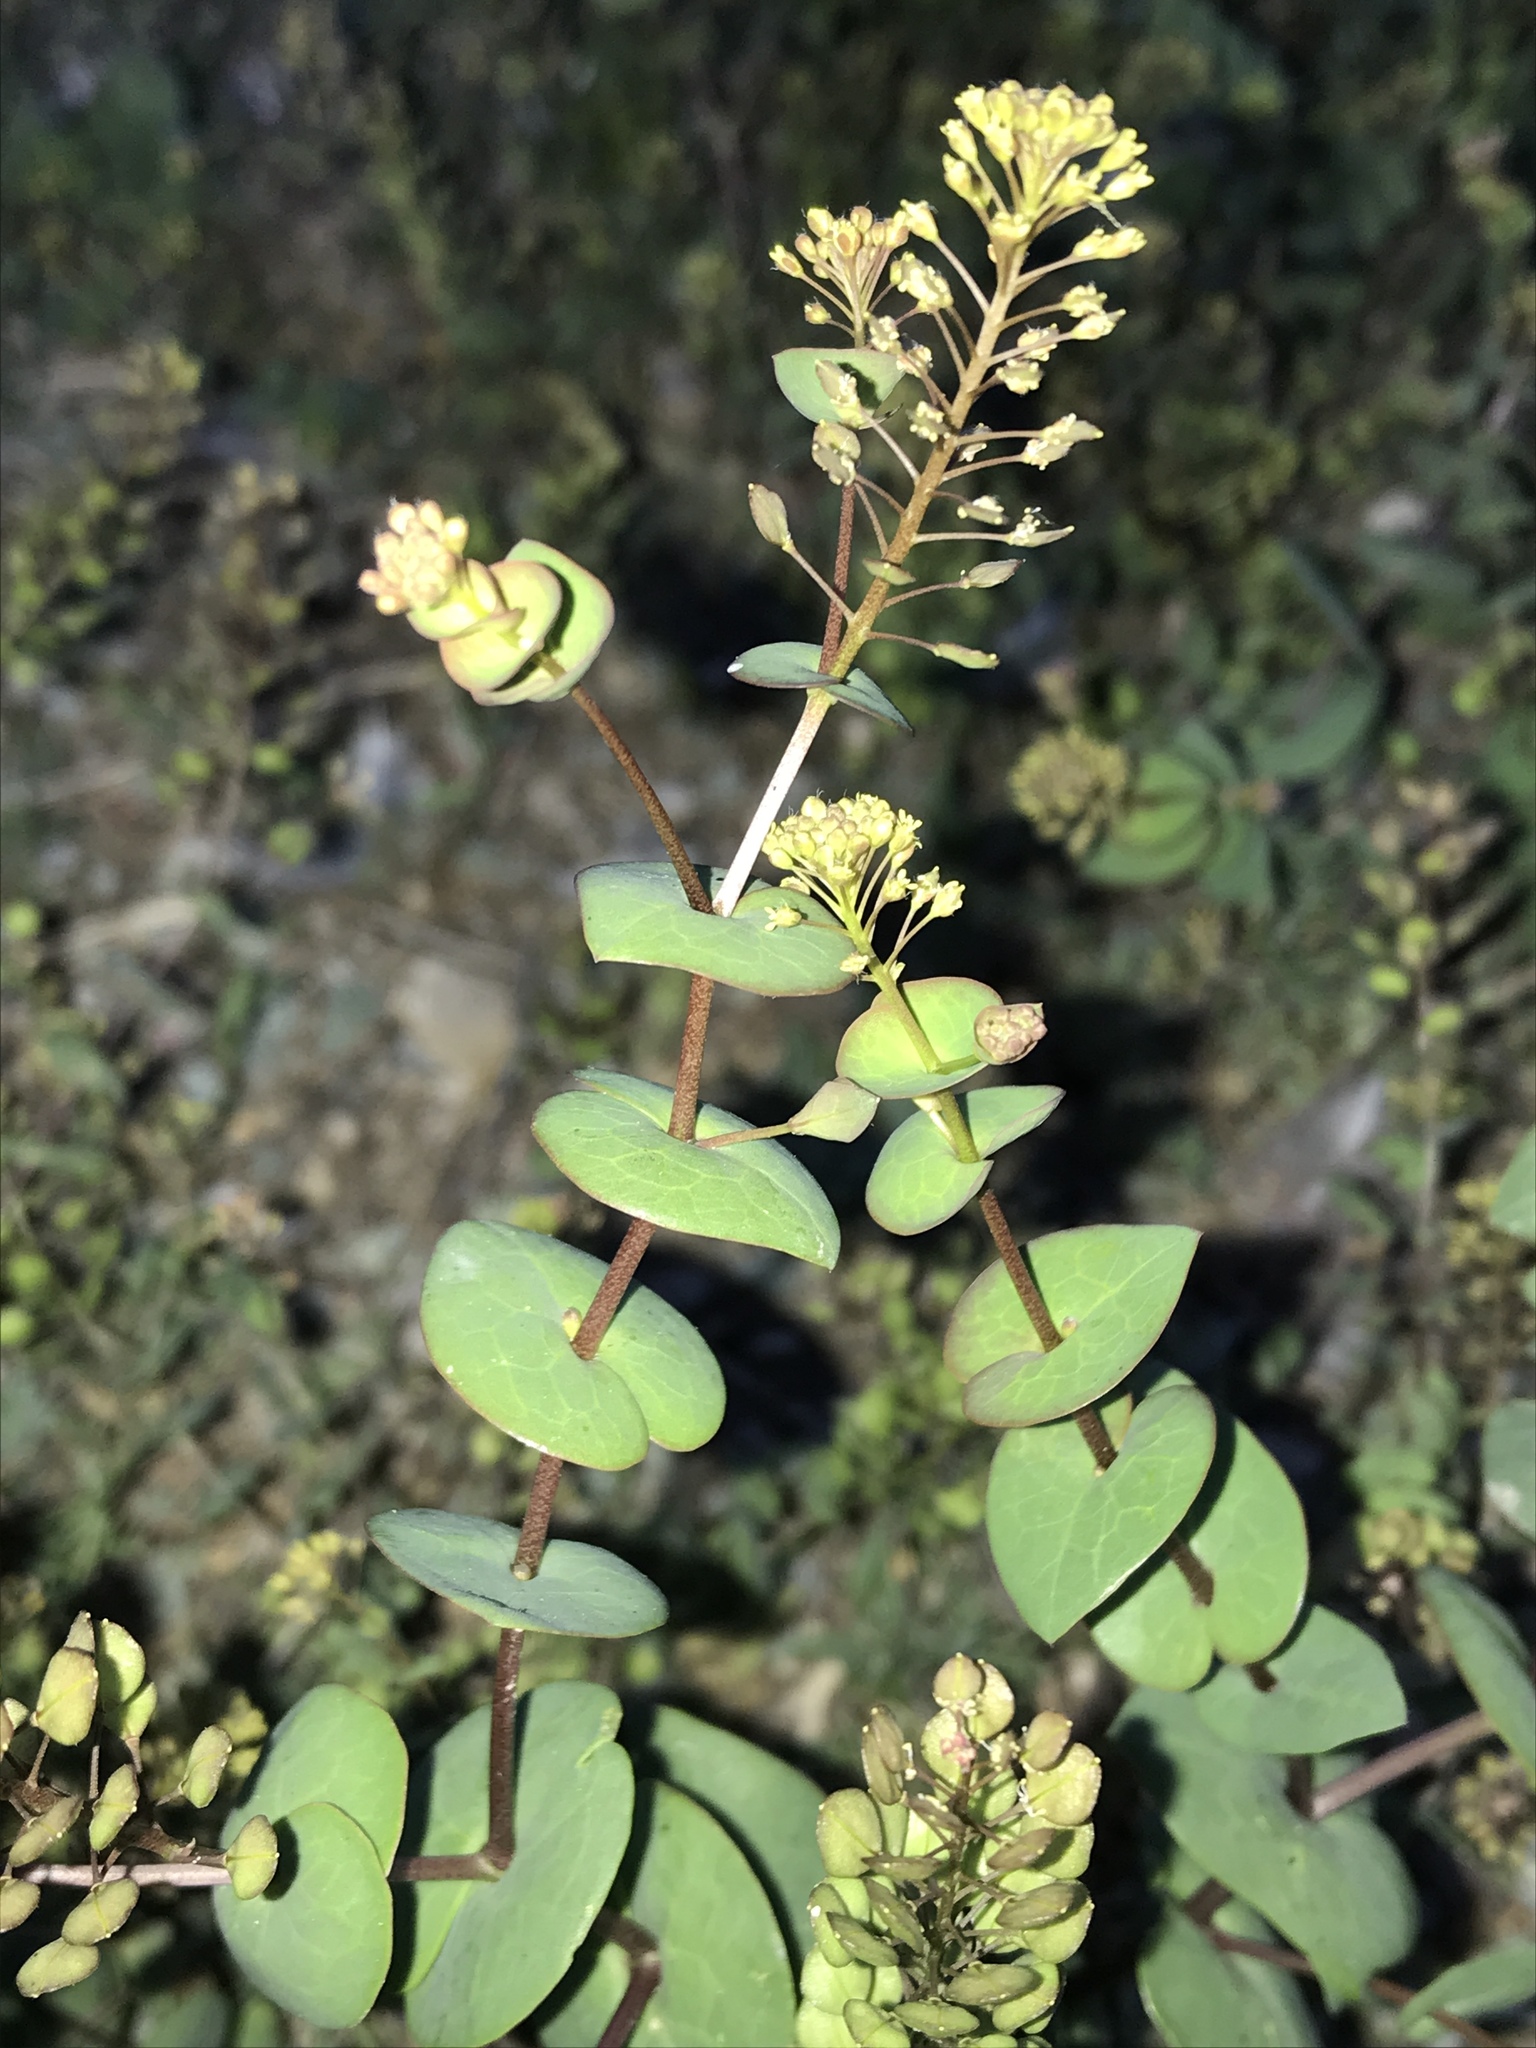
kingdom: Plantae
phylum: Tracheophyta
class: Magnoliopsida
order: Brassicales
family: Brassicaceae
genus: Lepidium
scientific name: Lepidium perfoliatum
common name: Perfoliate pepperwort
